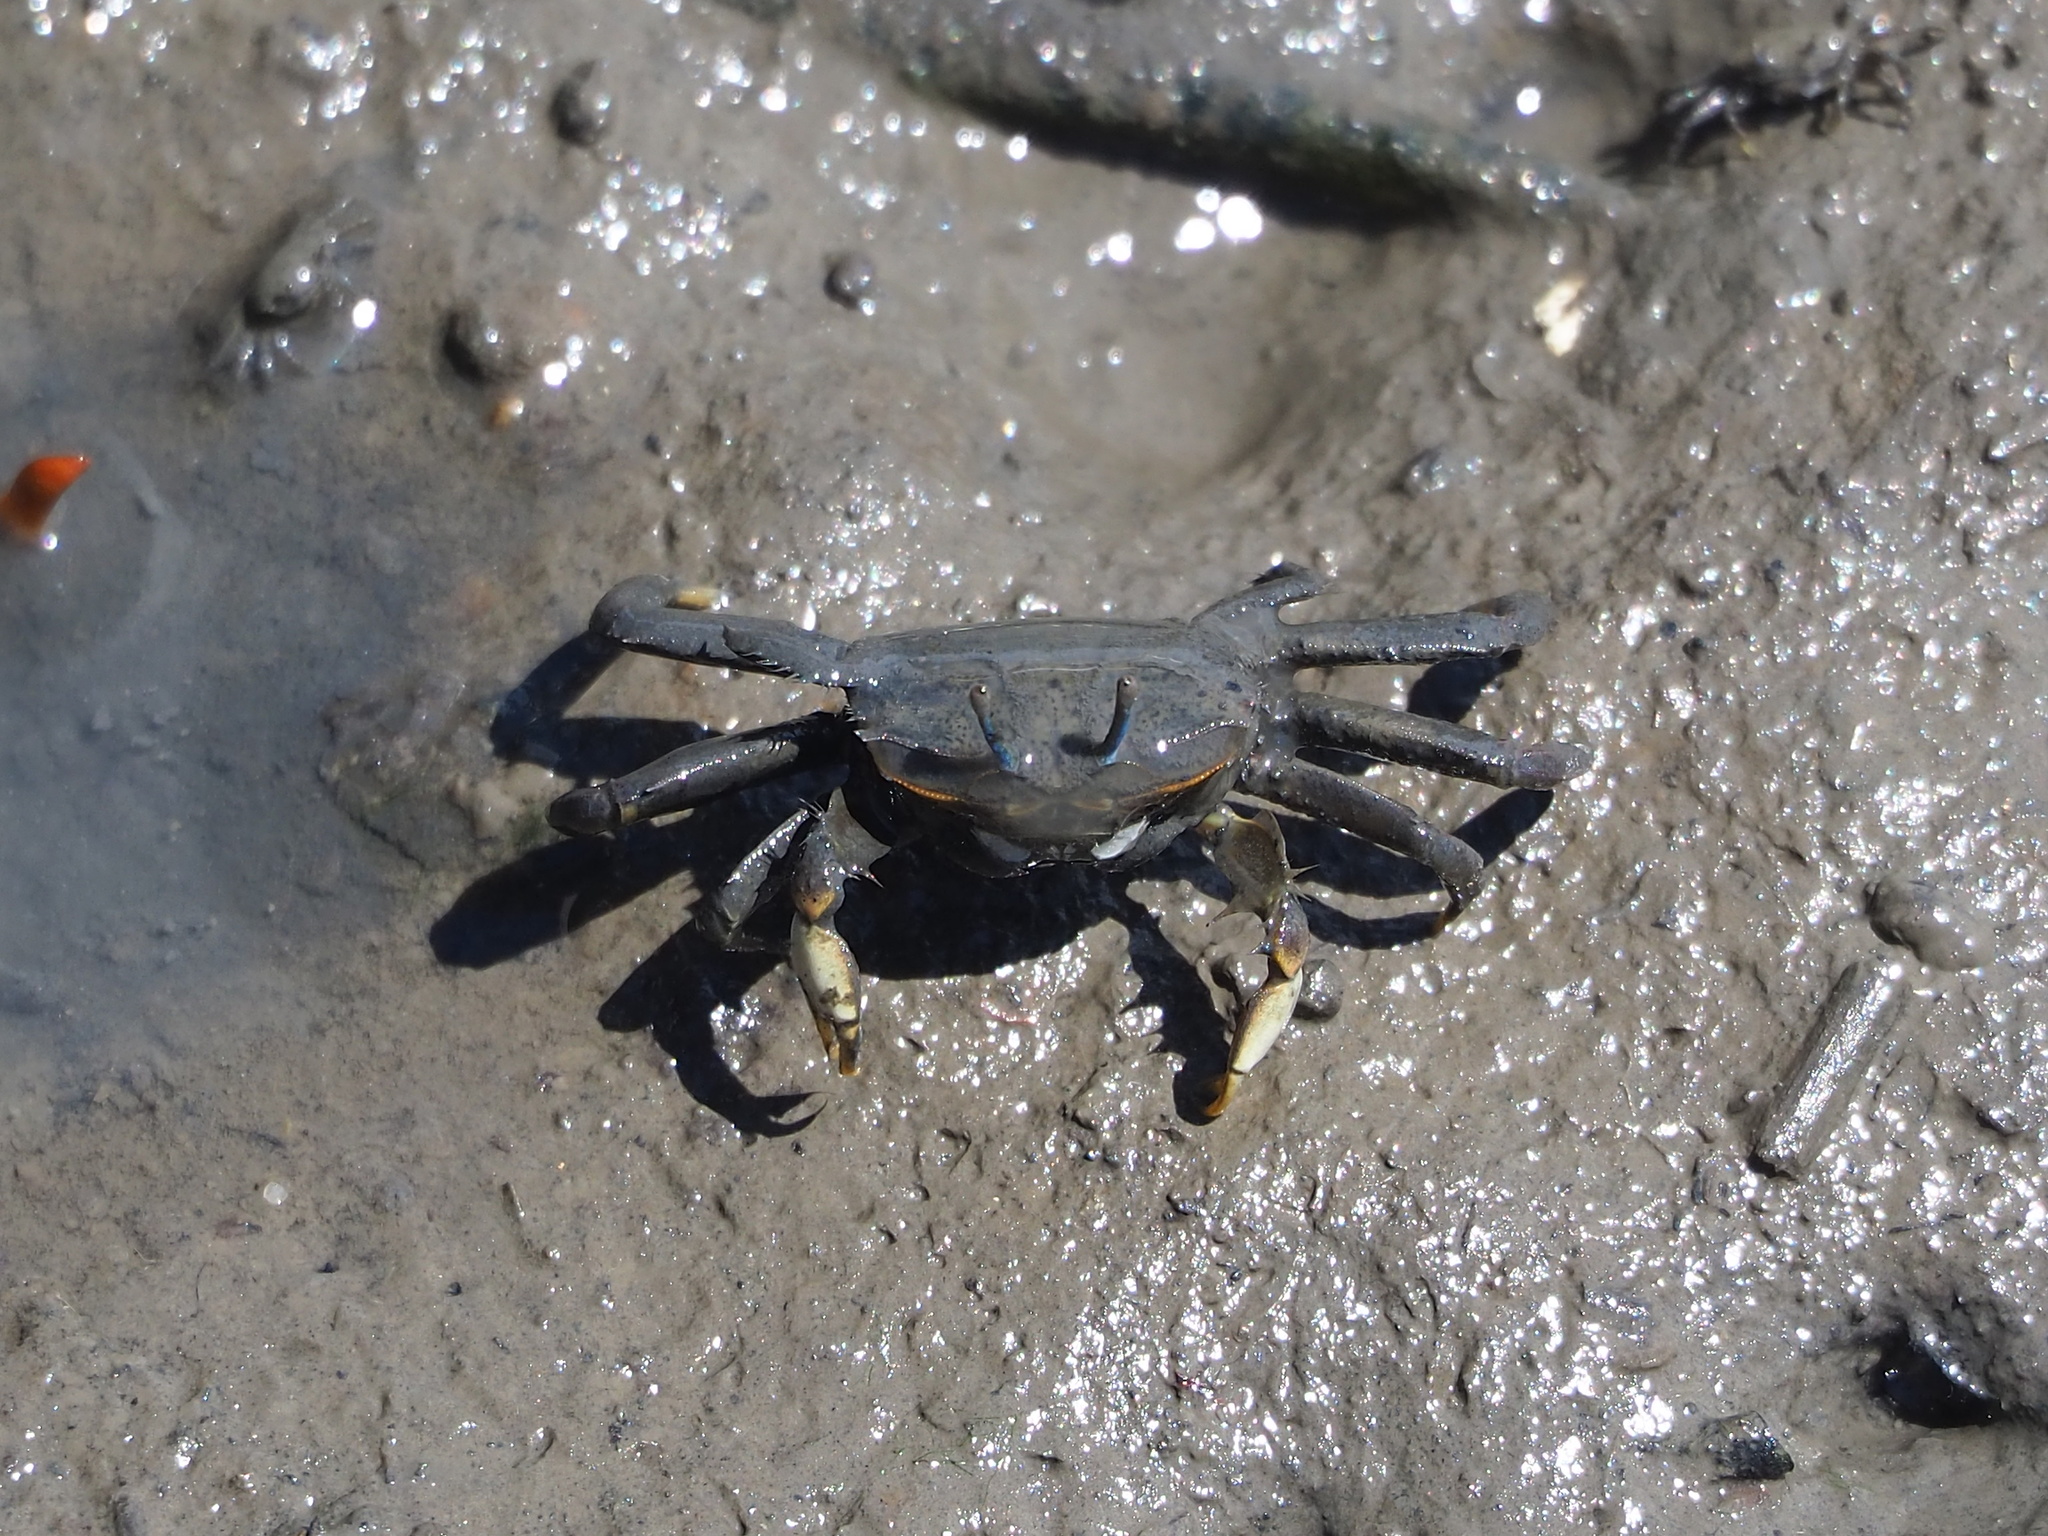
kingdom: Animalia
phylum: Arthropoda
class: Malacostraca
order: Decapoda
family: Macrophthalmidae
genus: Macrophthalmus
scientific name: Macrophthalmus banzai
